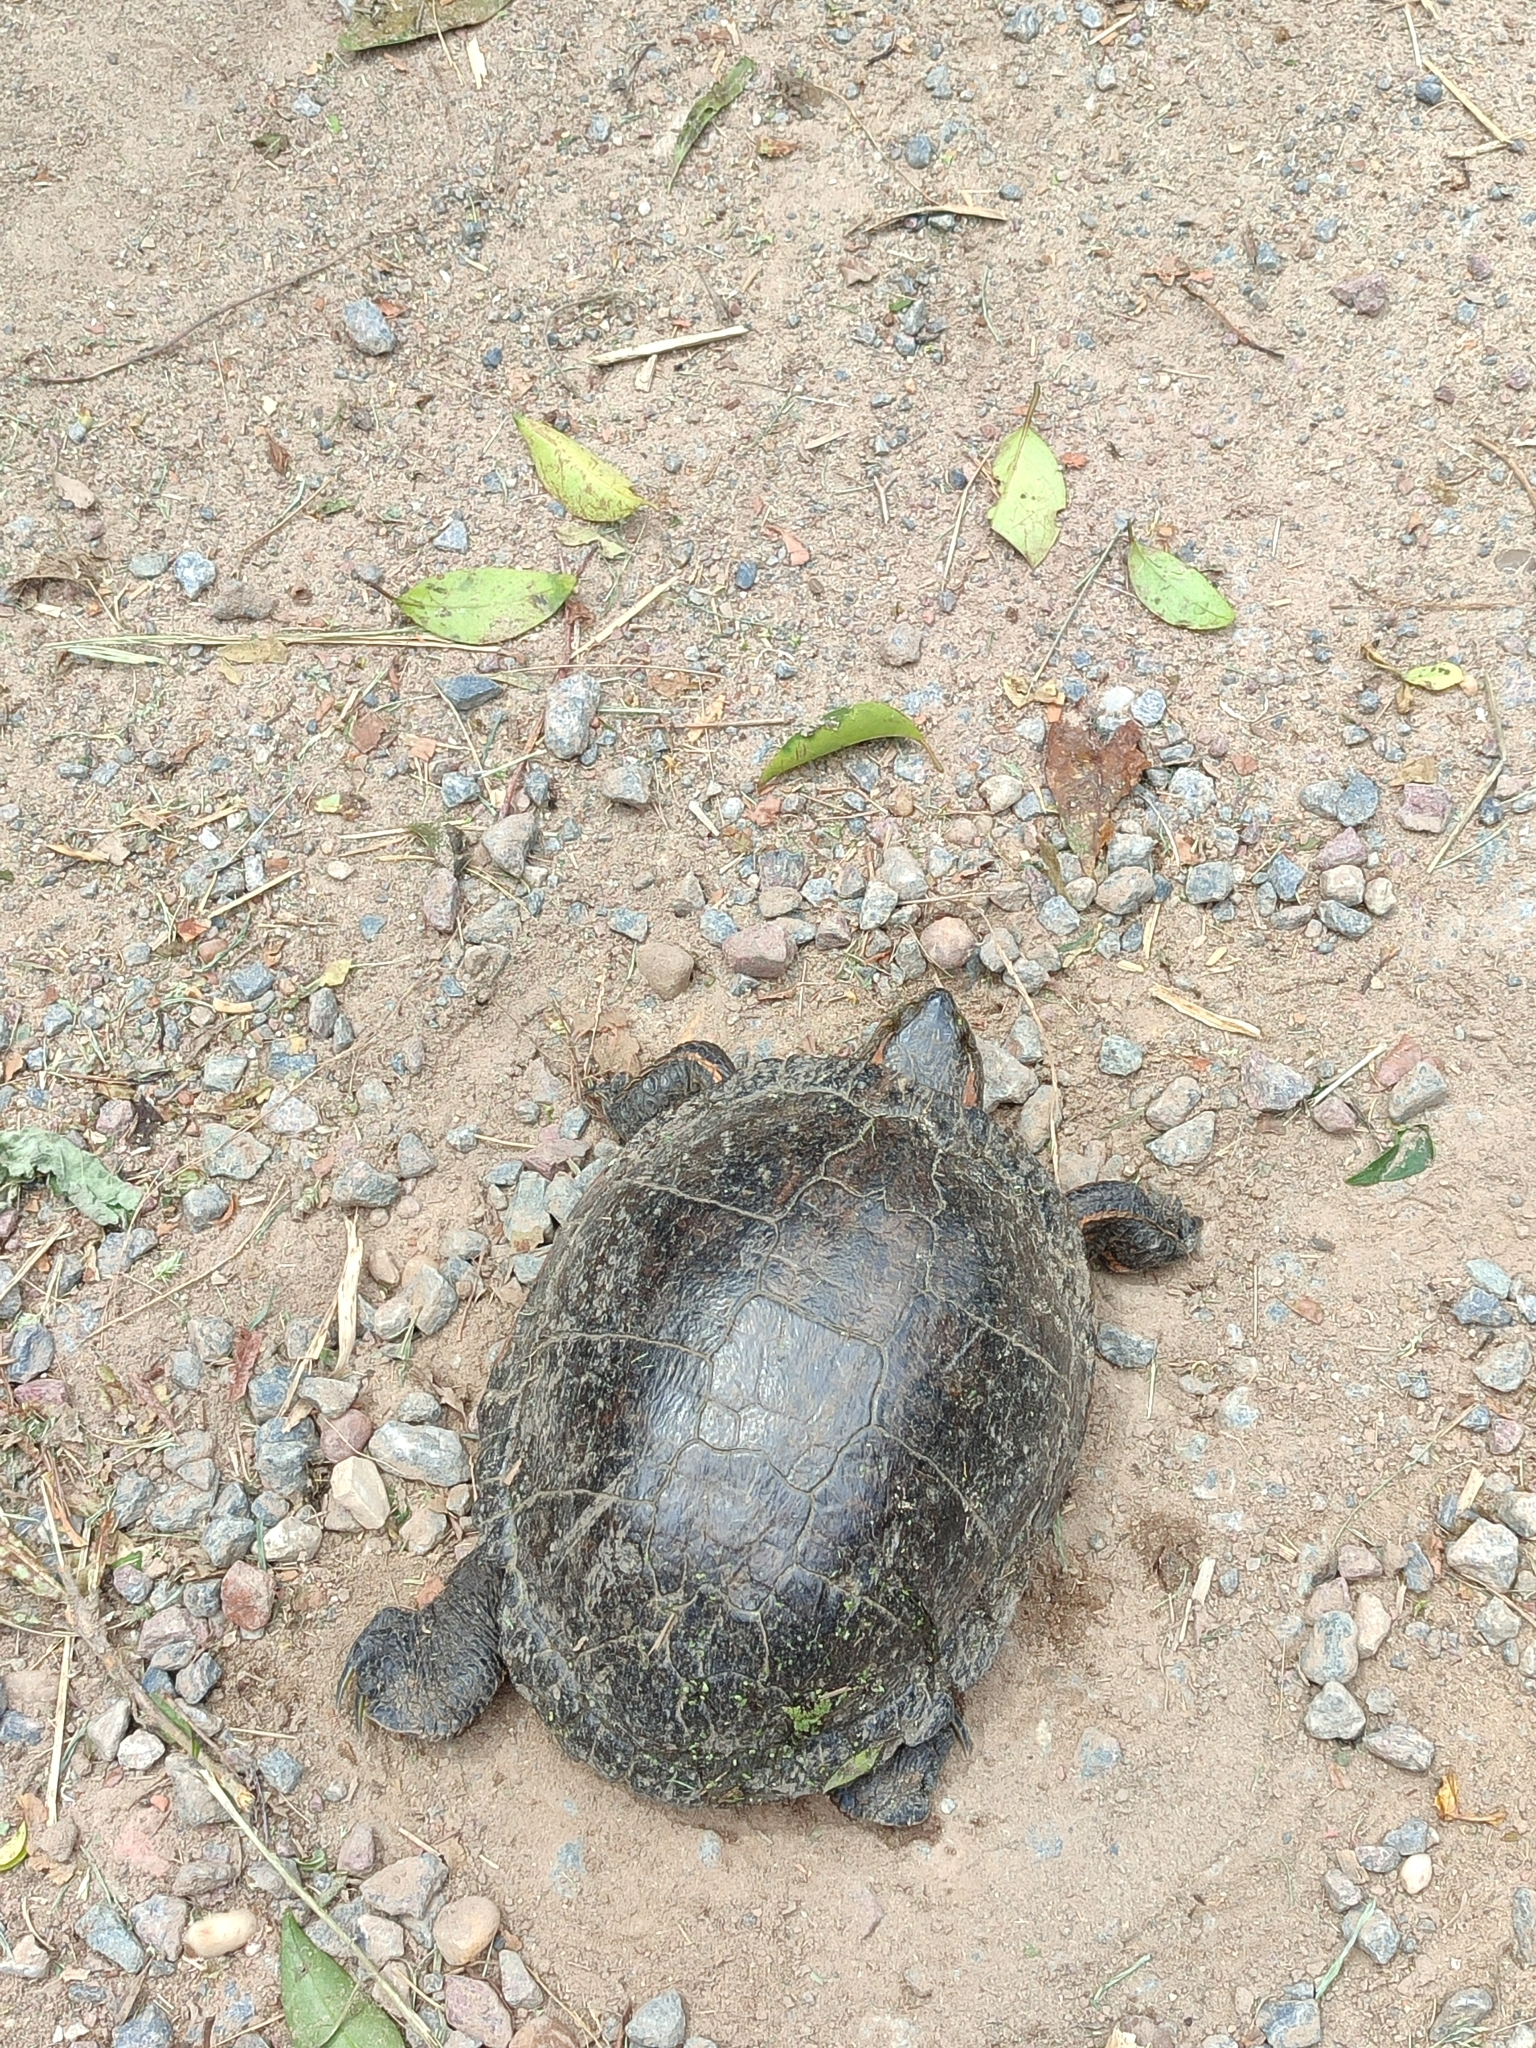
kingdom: Animalia
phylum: Chordata
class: Testudines
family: Emydidae
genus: Trachemys
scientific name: Trachemys dorbigni
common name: Black-bellied slider
